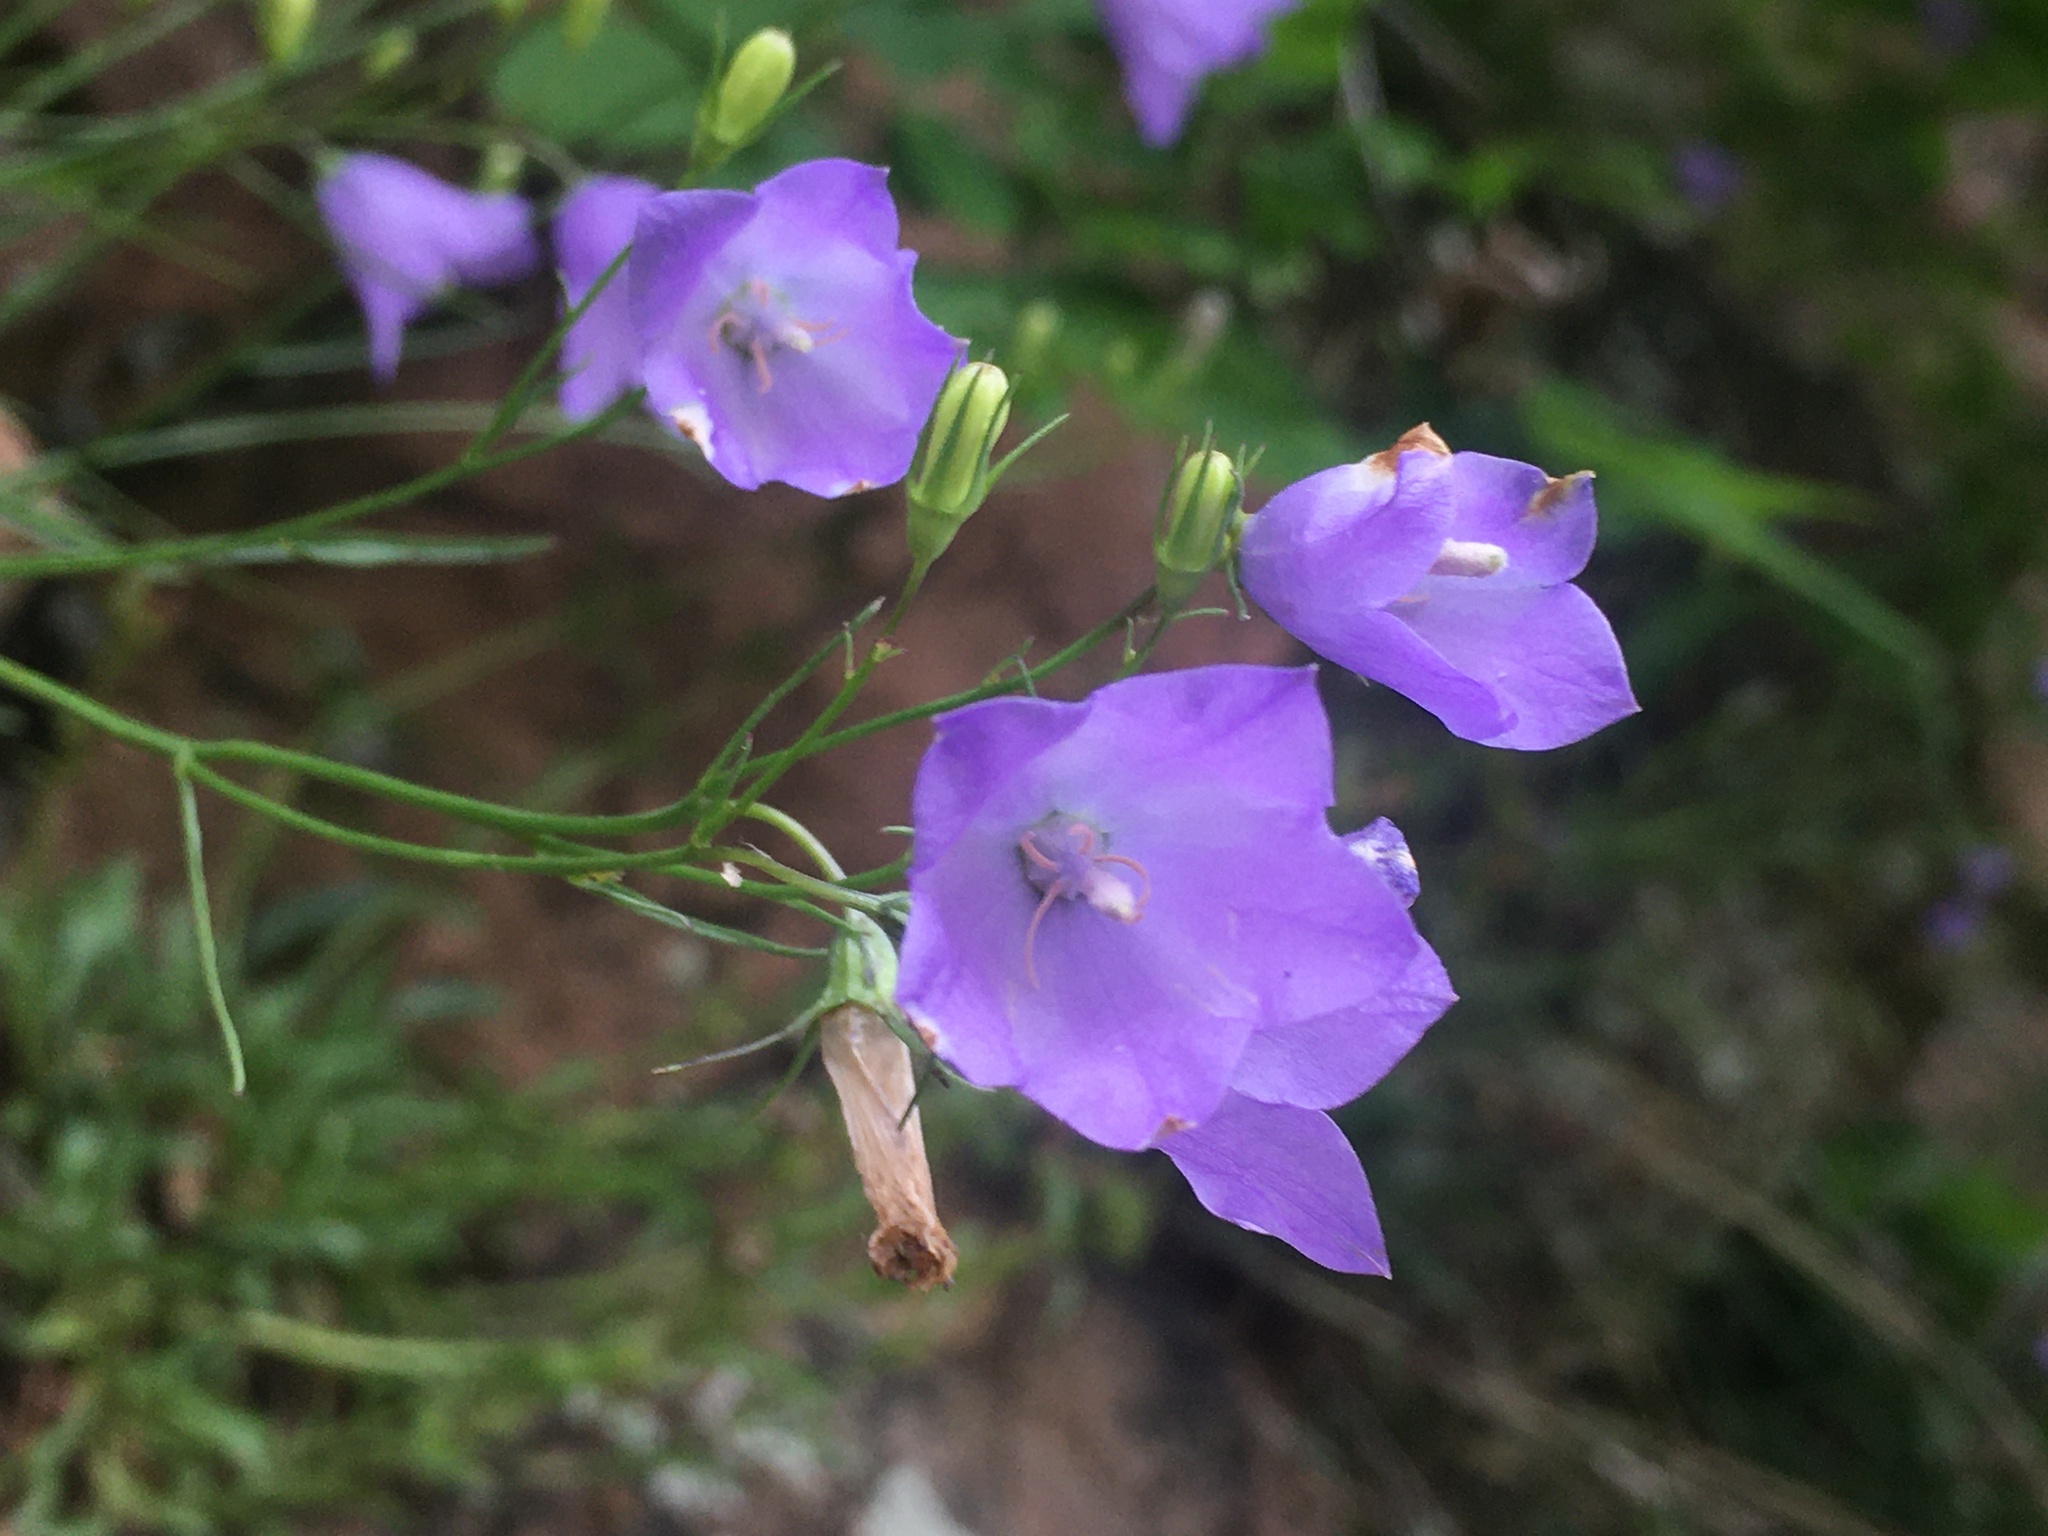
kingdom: Plantae
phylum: Tracheophyta
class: Magnoliopsida
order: Asterales
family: Campanulaceae
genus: Campanula
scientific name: Campanula petiolata
